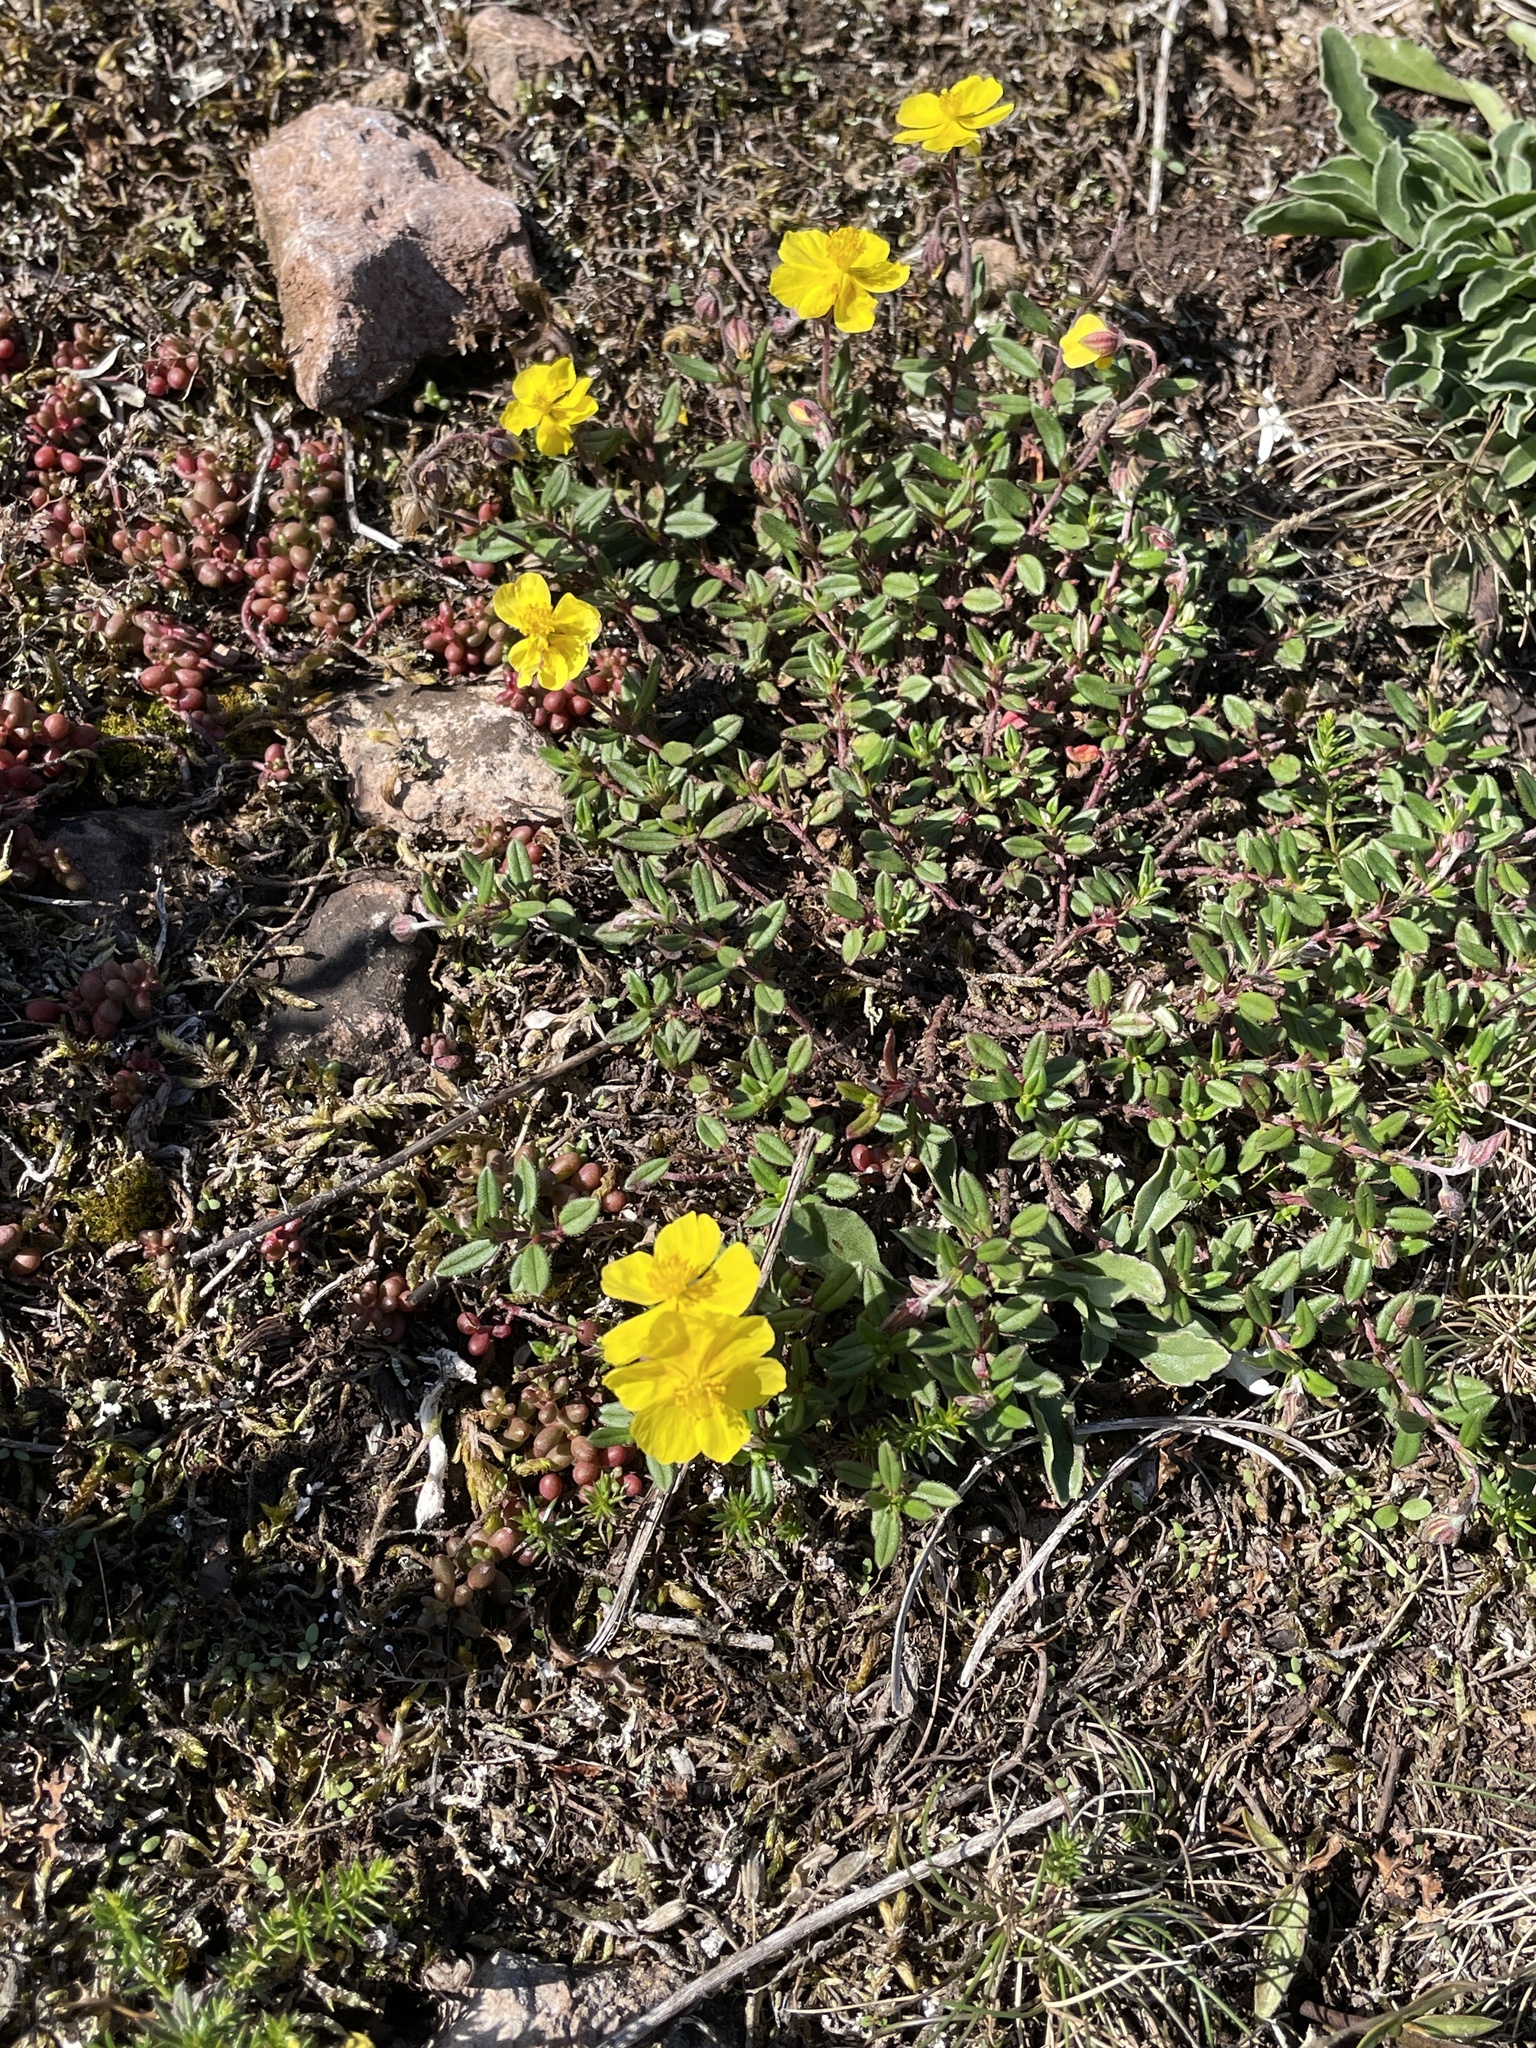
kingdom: Plantae
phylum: Tracheophyta
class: Magnoliopsida
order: Malvales
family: Cistaceae
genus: Helianthemum
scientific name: Helianthemum nummularium
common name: Common rock-rose
